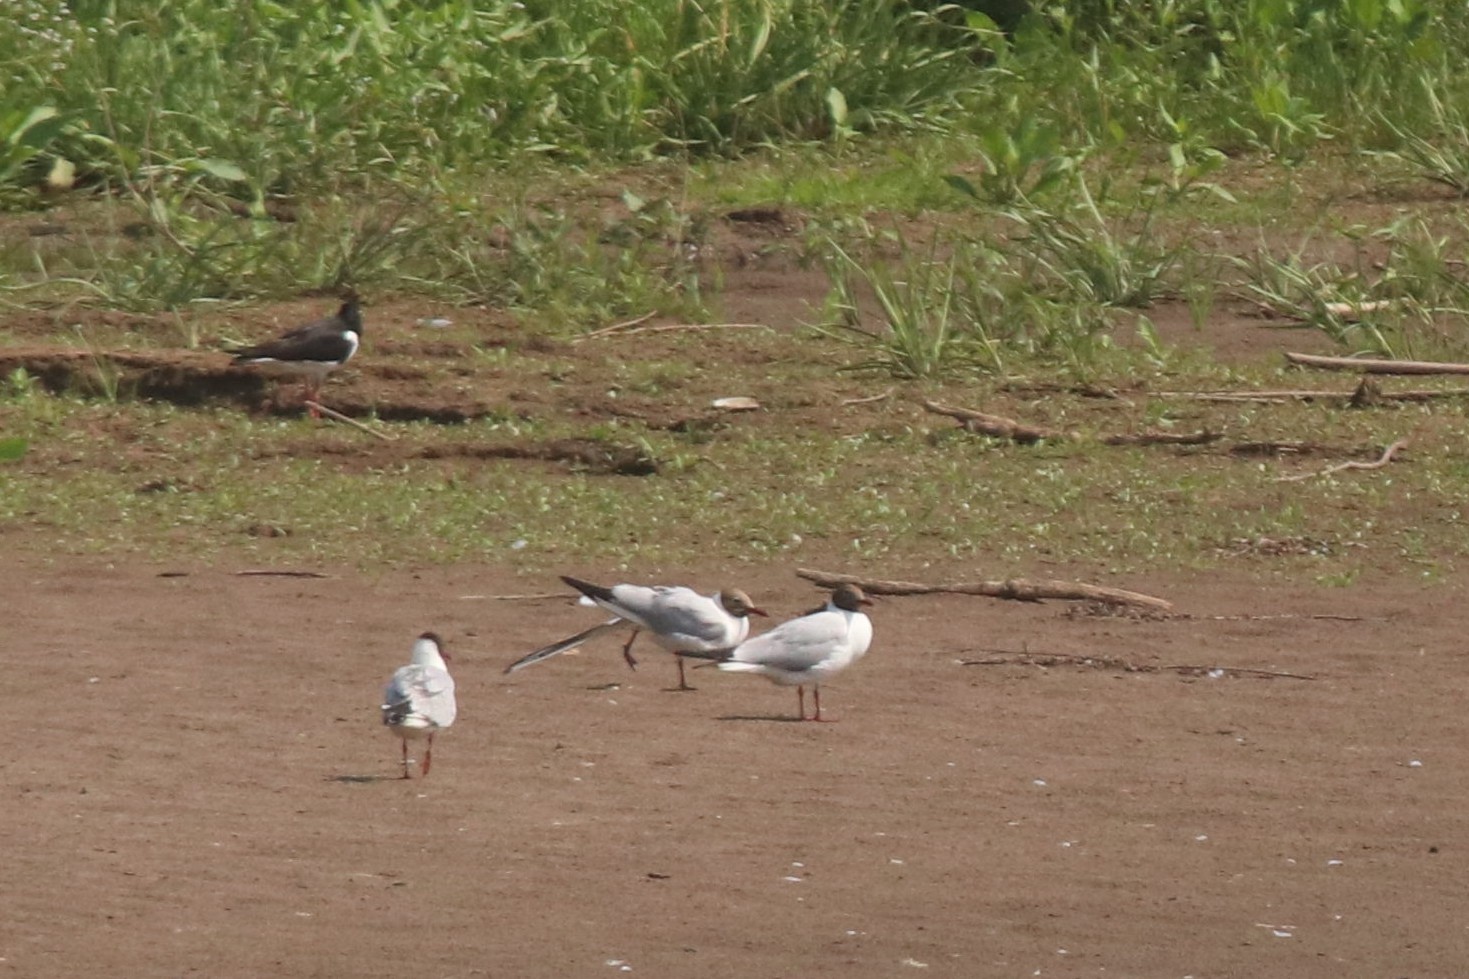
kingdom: Animalia
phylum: Chordata
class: Aves
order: Charadriiformes
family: Laridae
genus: Chroicocephalus
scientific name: Chroicocephalus ridibundus
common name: Black-headed gull
